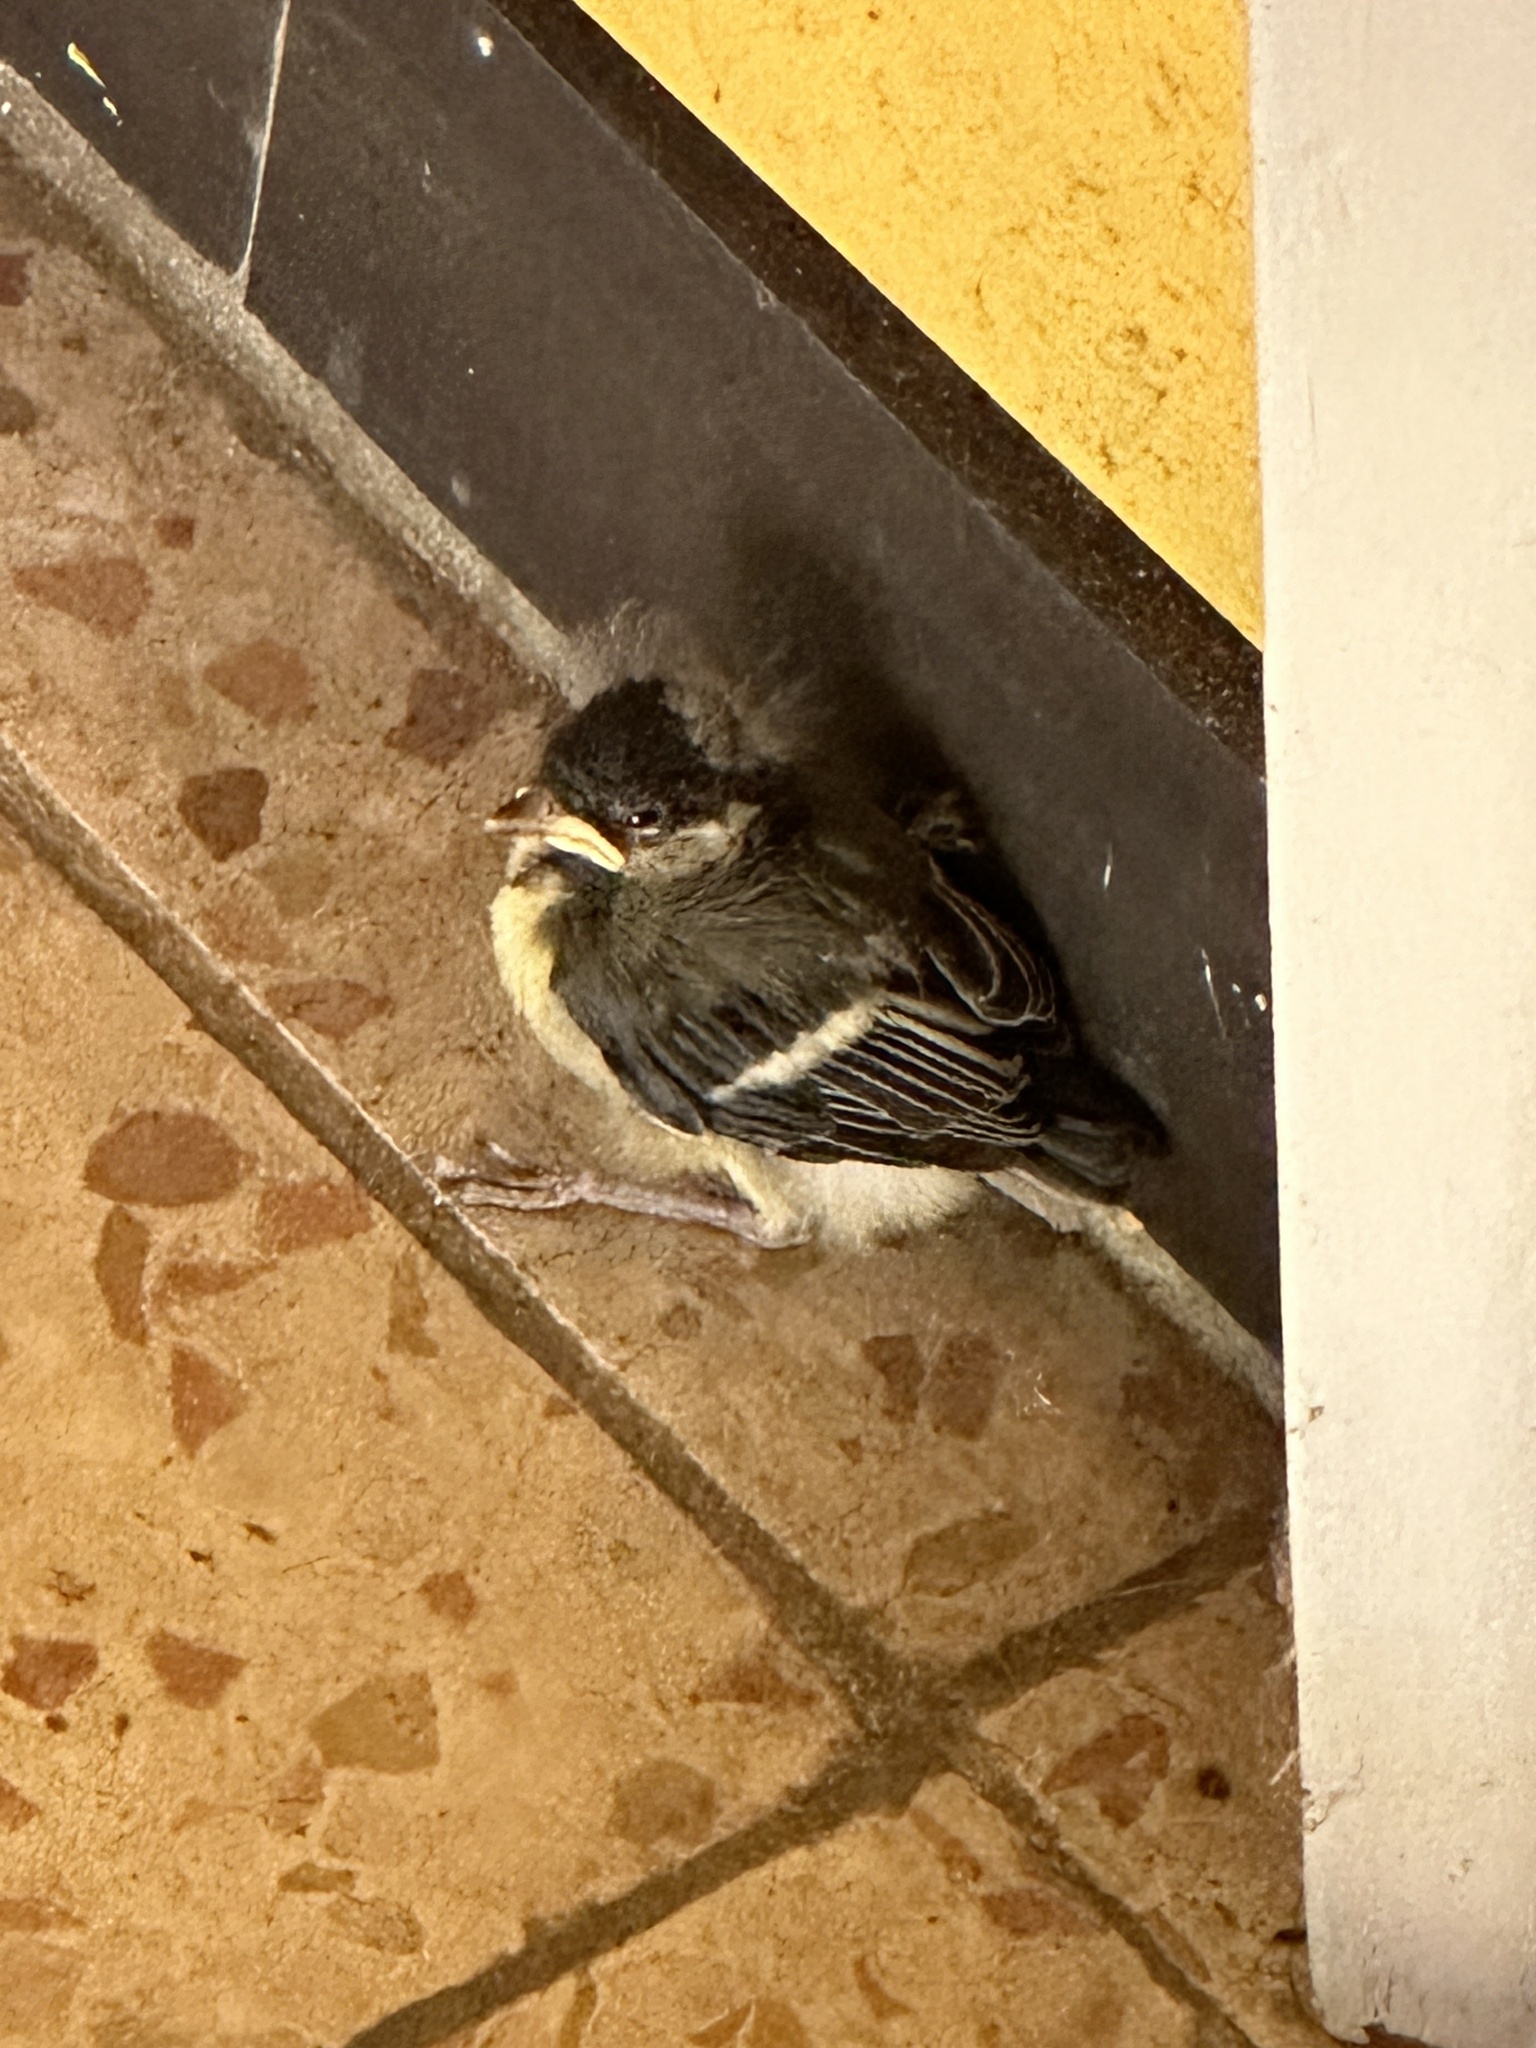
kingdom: Animalia
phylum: Chordata
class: Aves
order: Passeriformes
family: Paridae
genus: Parus
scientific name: Parus major
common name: Great tit
